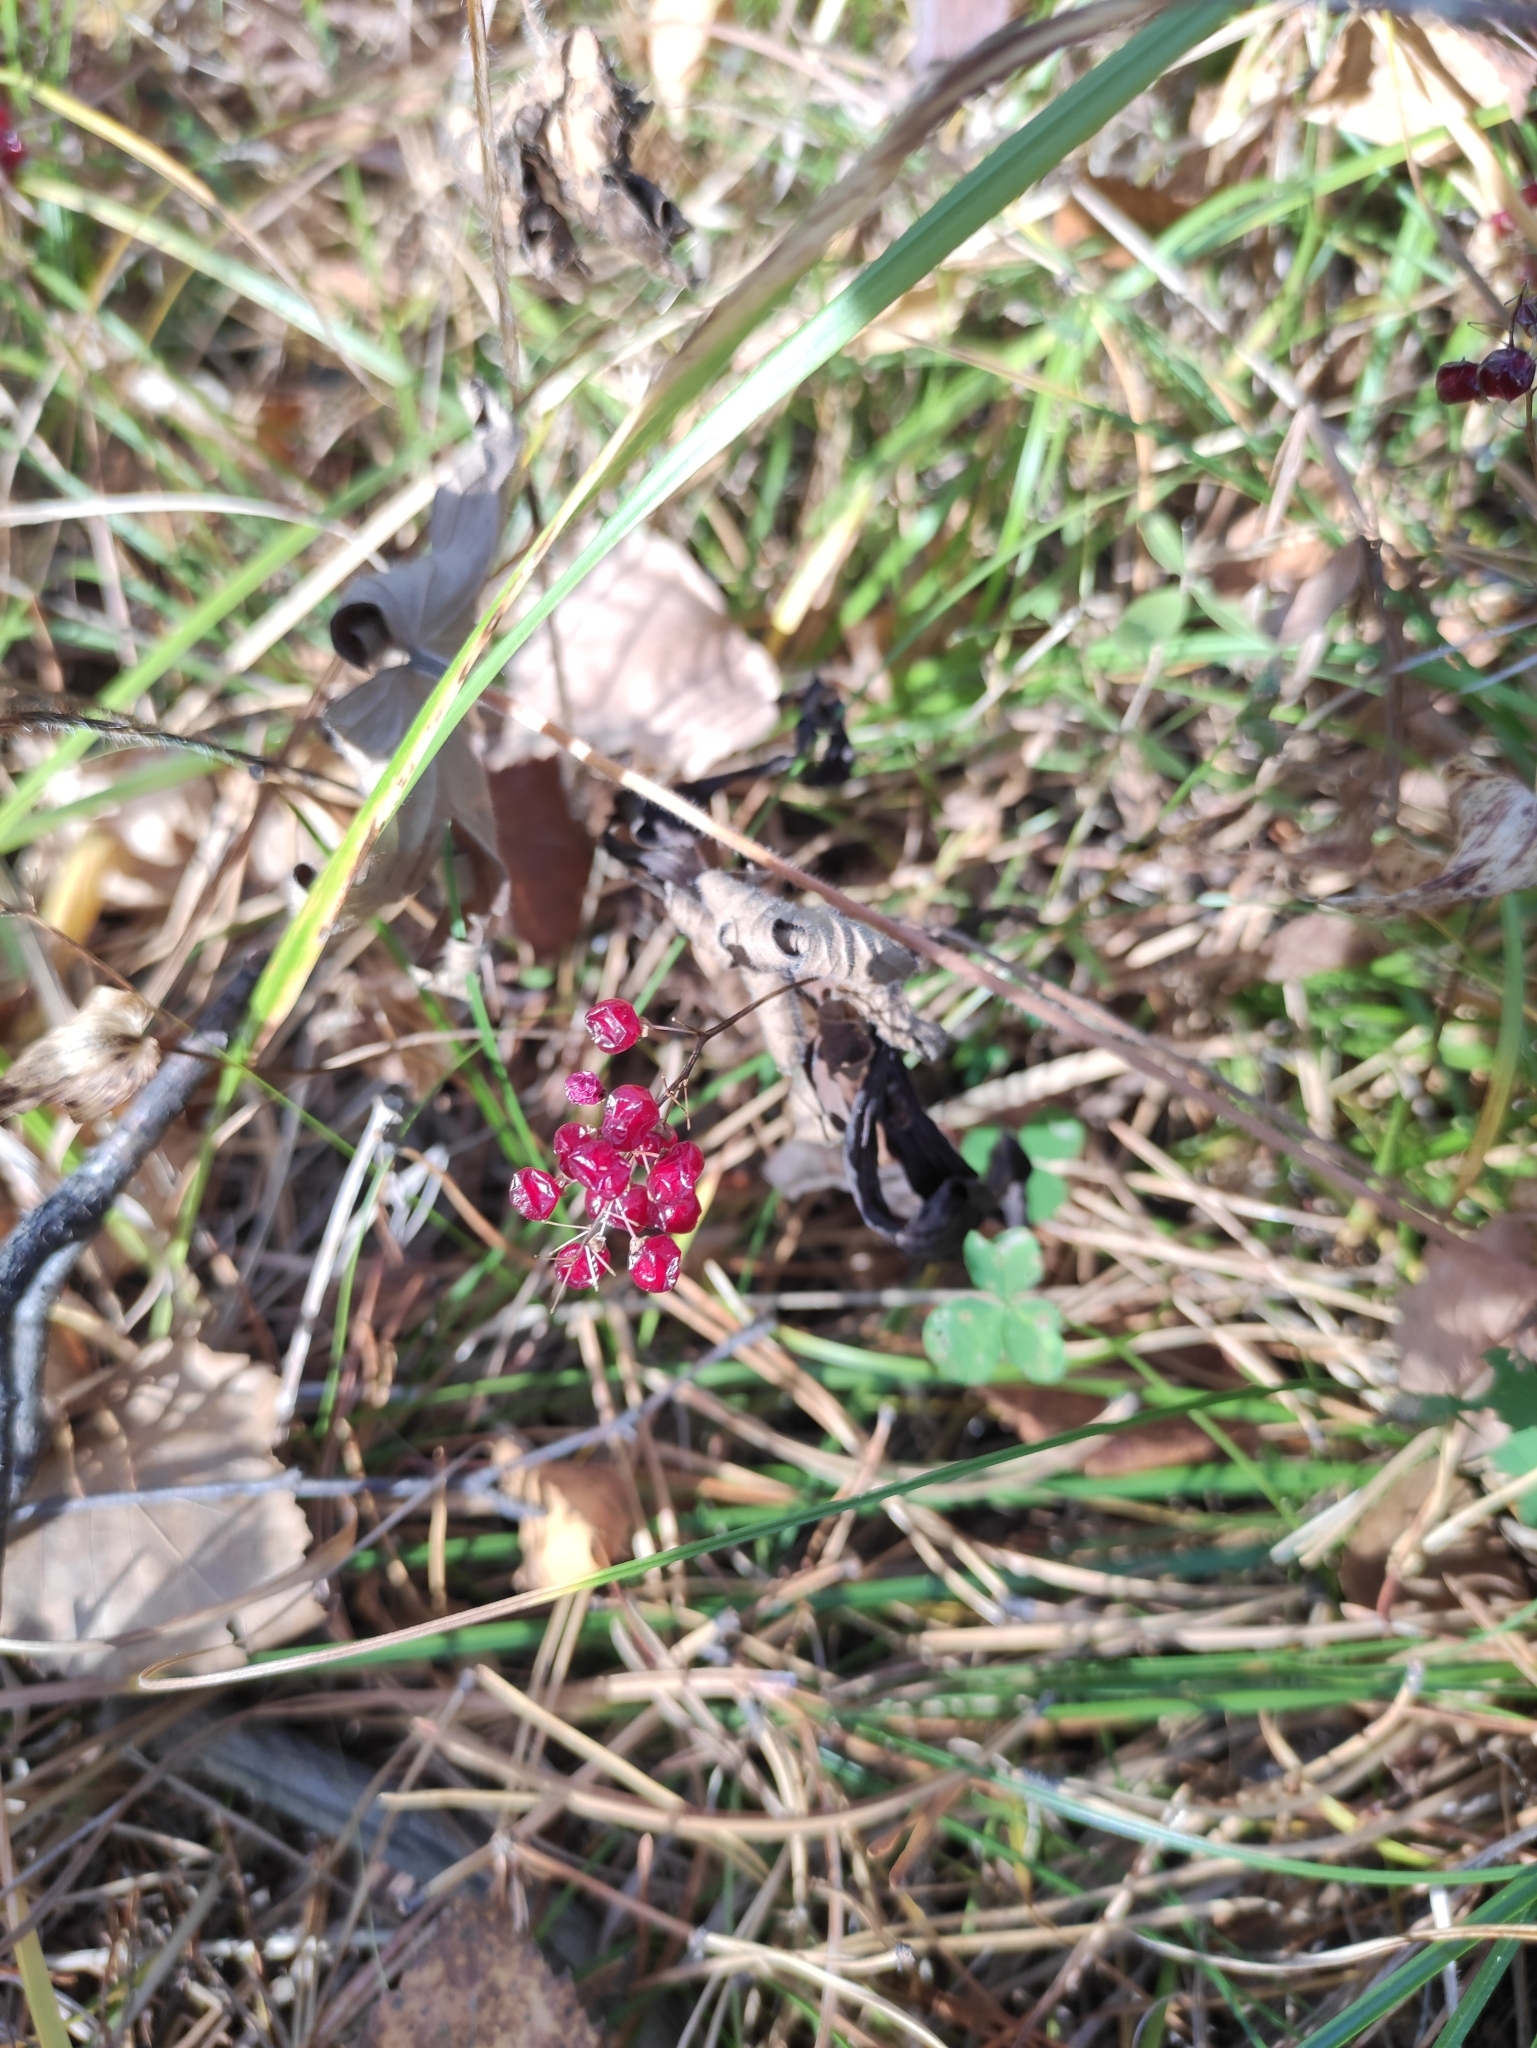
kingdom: Plantae
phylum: Tracheophyta
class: Liliopsida
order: Asparagales
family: Asparagaceae
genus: Maianthemum
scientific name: Maianthemum bifolium
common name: May lily
